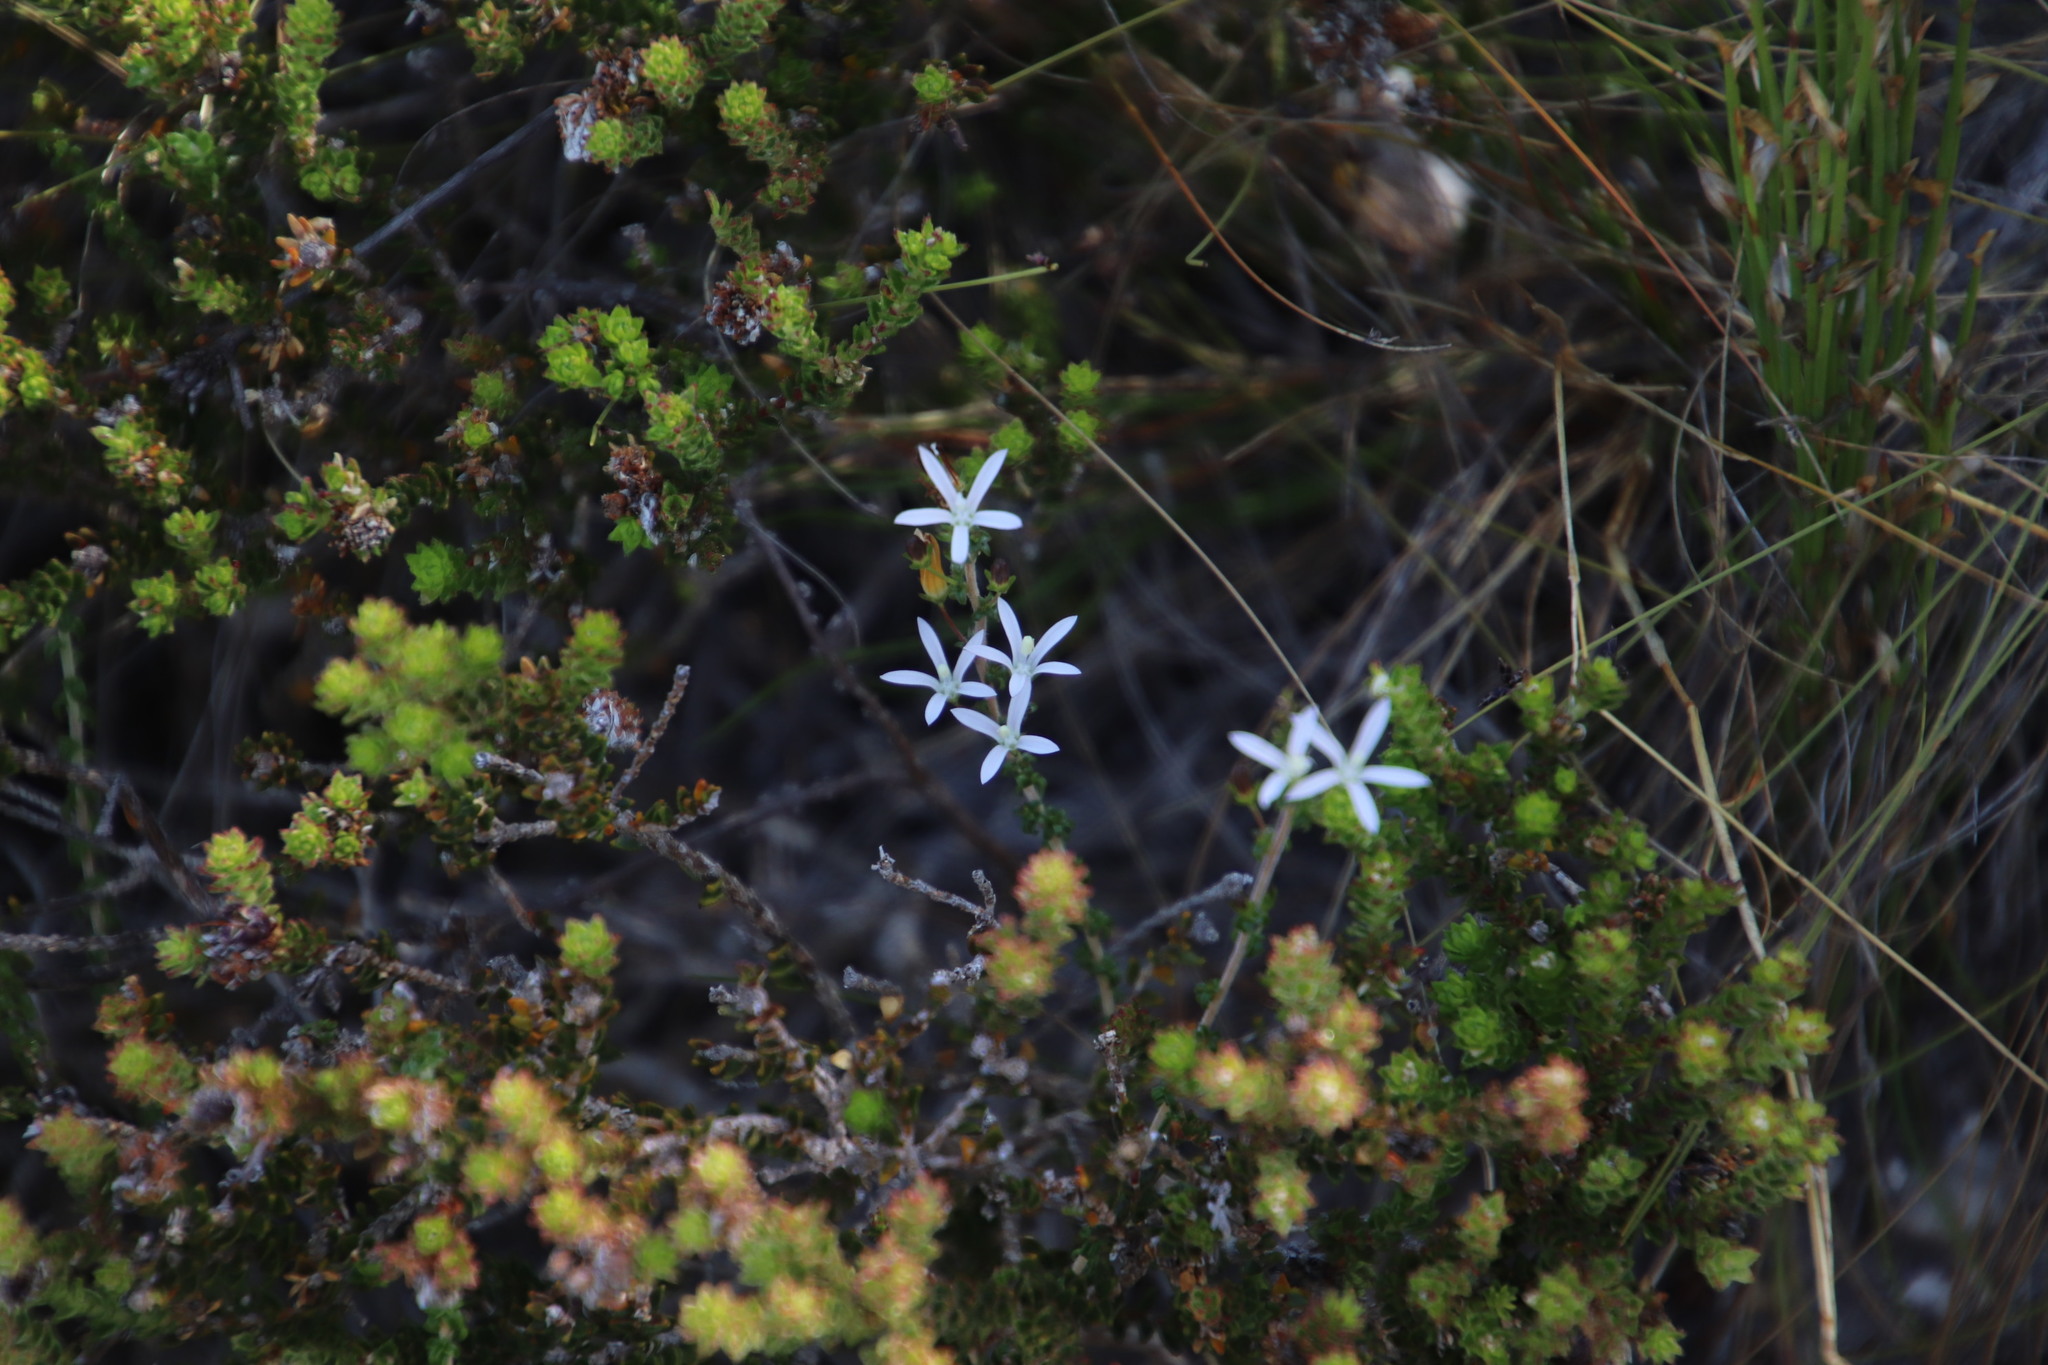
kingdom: Plantae
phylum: Tracheophyta
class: Magnoliopsida
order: Asterales
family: Campanulaceae
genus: Wahlenbergia
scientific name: Wahlenbergia tenella
